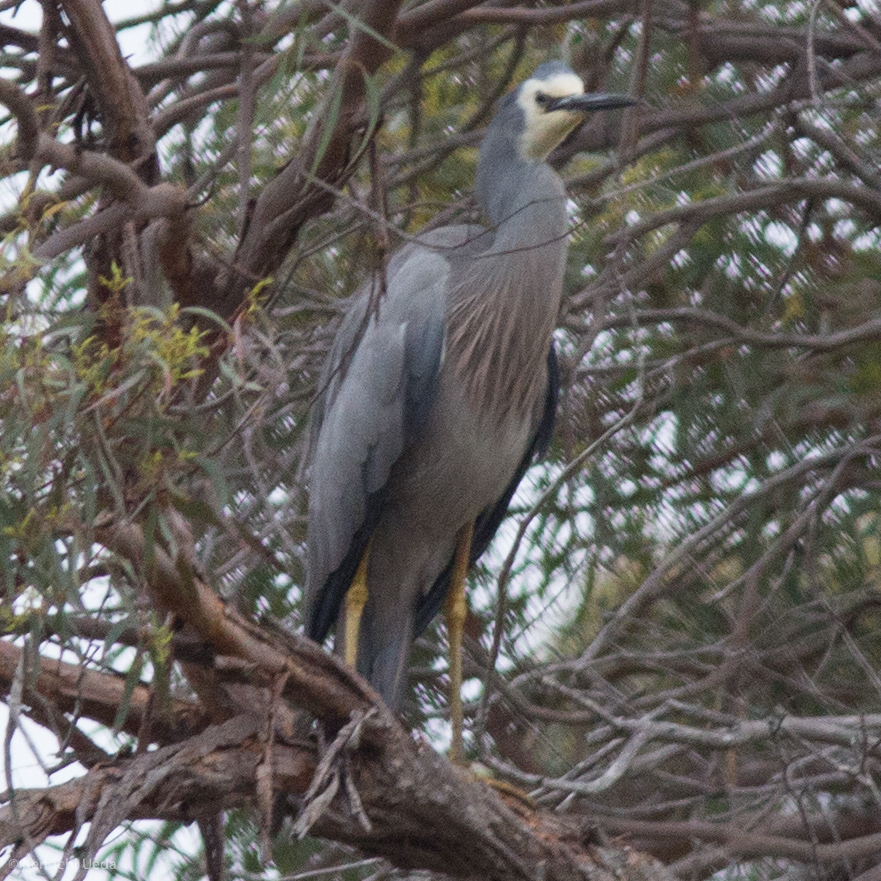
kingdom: Animalia
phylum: Chordata
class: Aves
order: Pelecaniformes
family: Ardeidae
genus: Egretta
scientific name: Egretta novaehollandiae
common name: White-faced heron
